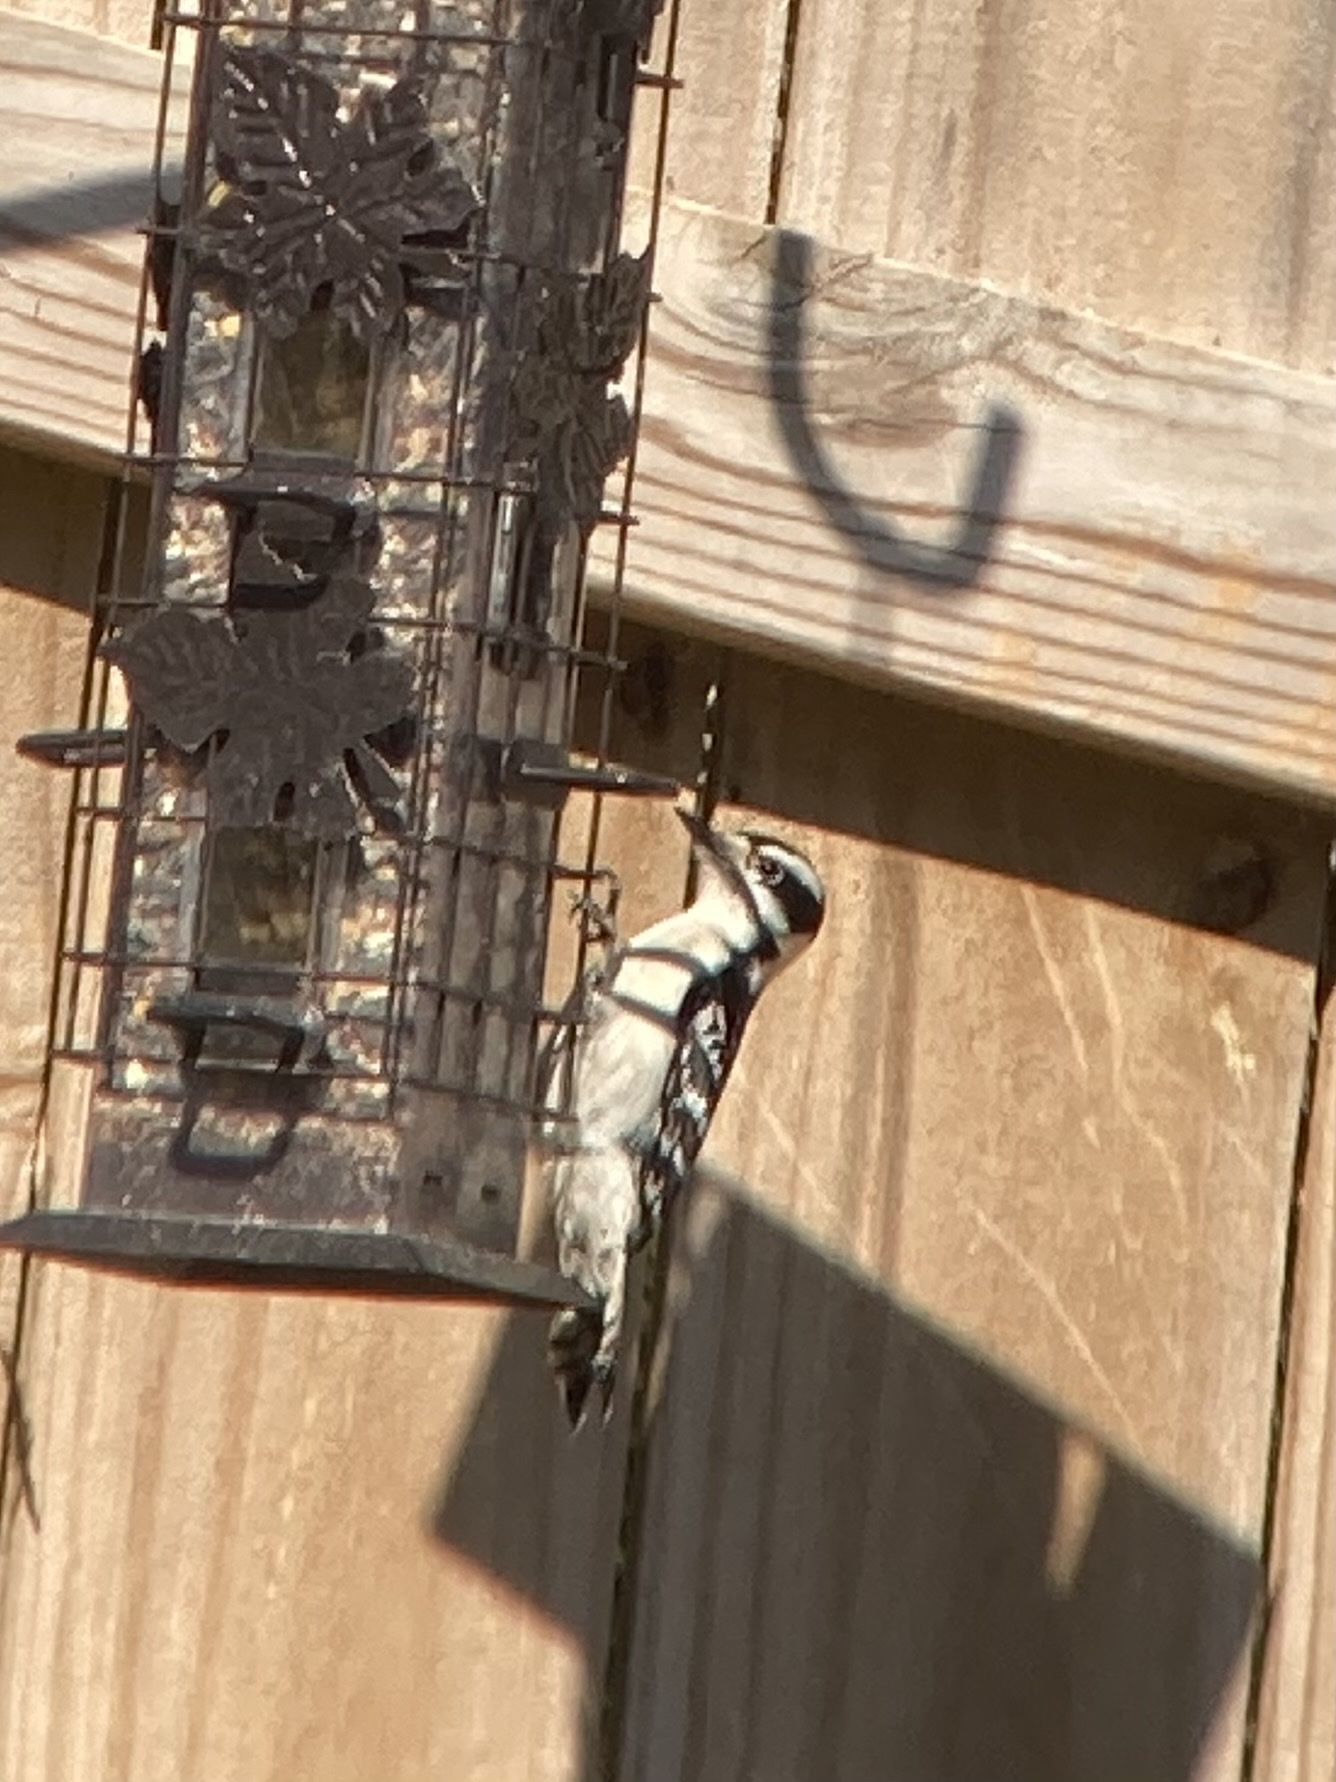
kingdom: Animalia
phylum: Chordata
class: Aves
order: Piciformes
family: Picidae
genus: Leuconotopicus
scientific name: Leuconotopicus villosus
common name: Hairy woodpecker
